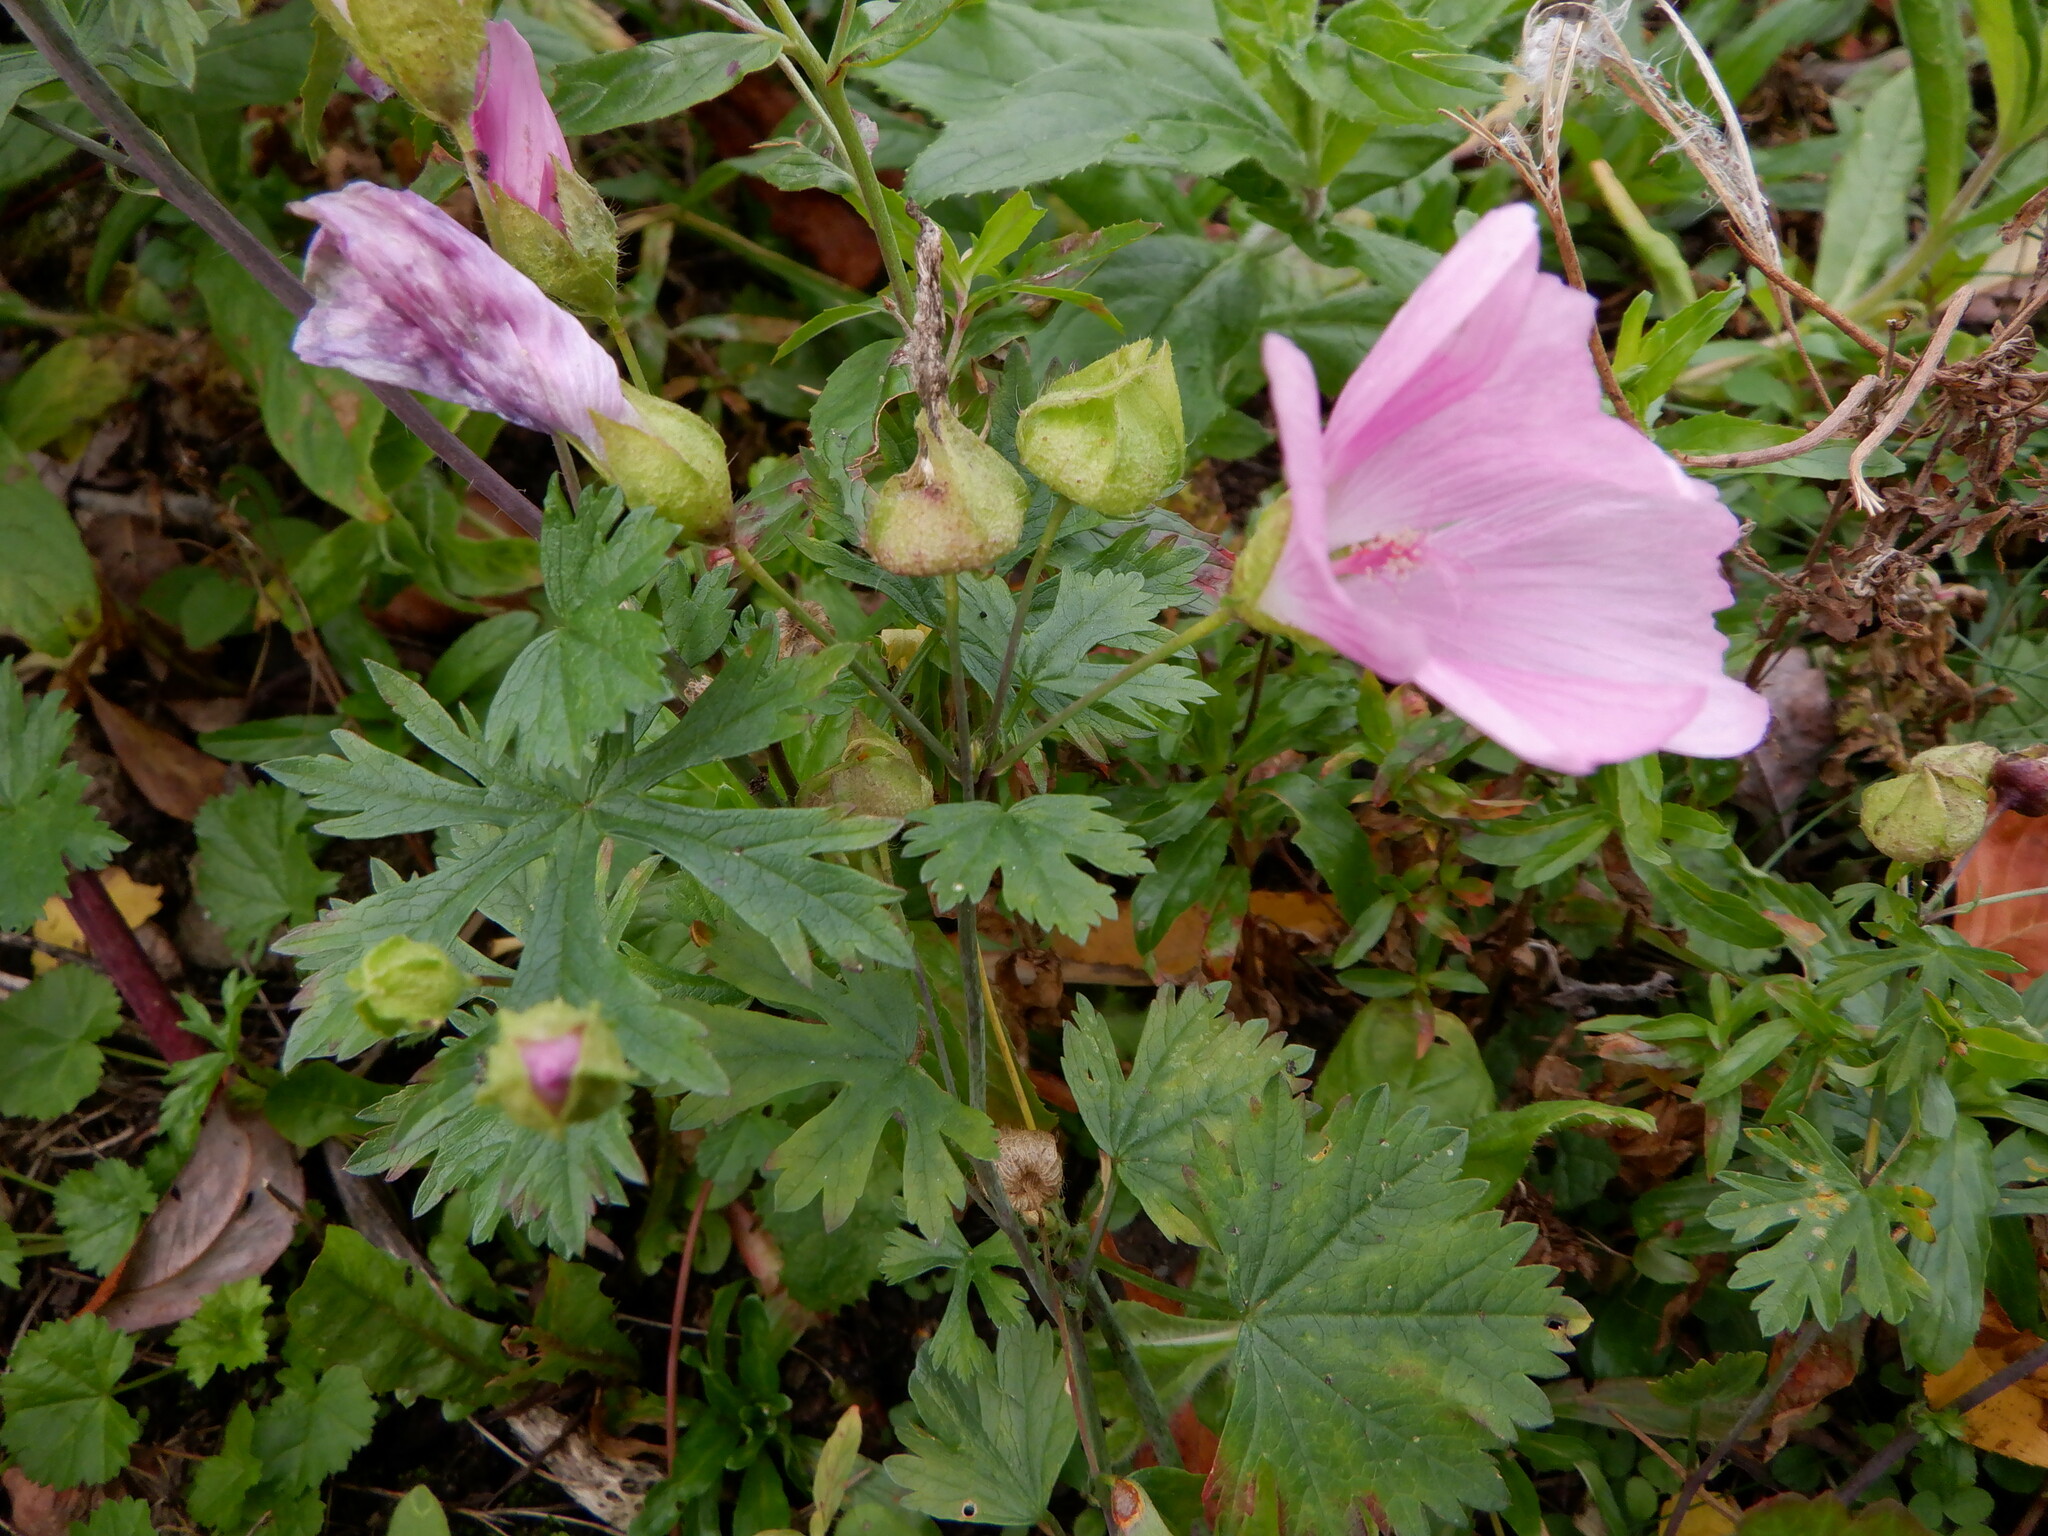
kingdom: Plantae
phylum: Tracheophyta
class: Magnoliopsida
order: Malvales
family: Malvaceae
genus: Malva
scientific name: Malva moschata
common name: Musk mallow
